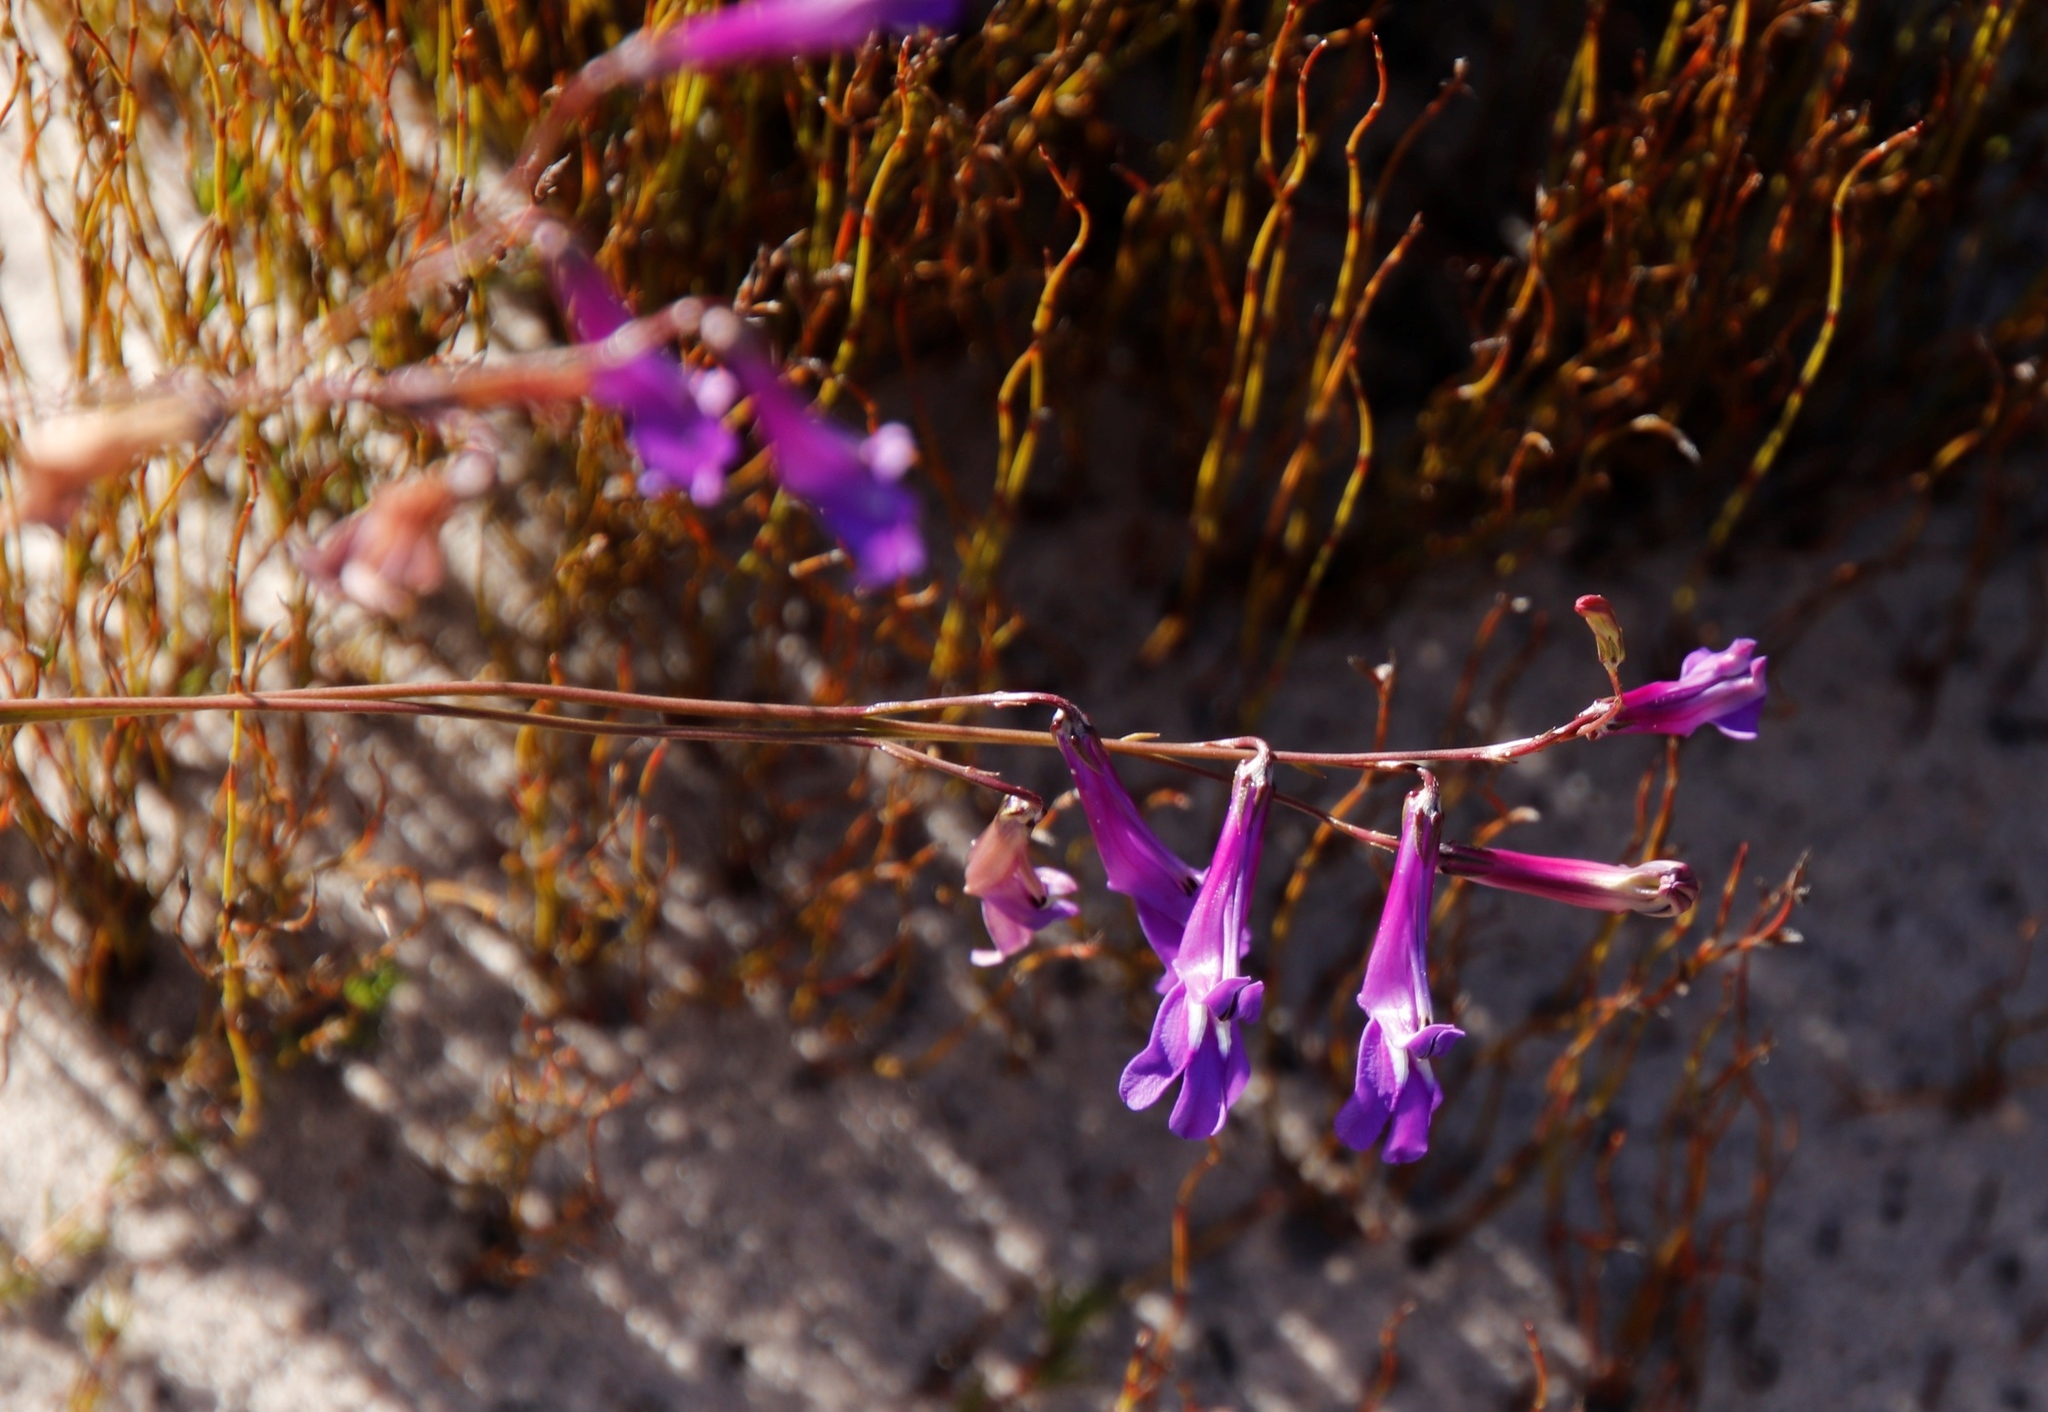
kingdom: Plantae
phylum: Tracheophyta
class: Magnoliopsida
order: Asterales
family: Campanulaceae
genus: Lobelia
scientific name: Lobelia coronopifolia
